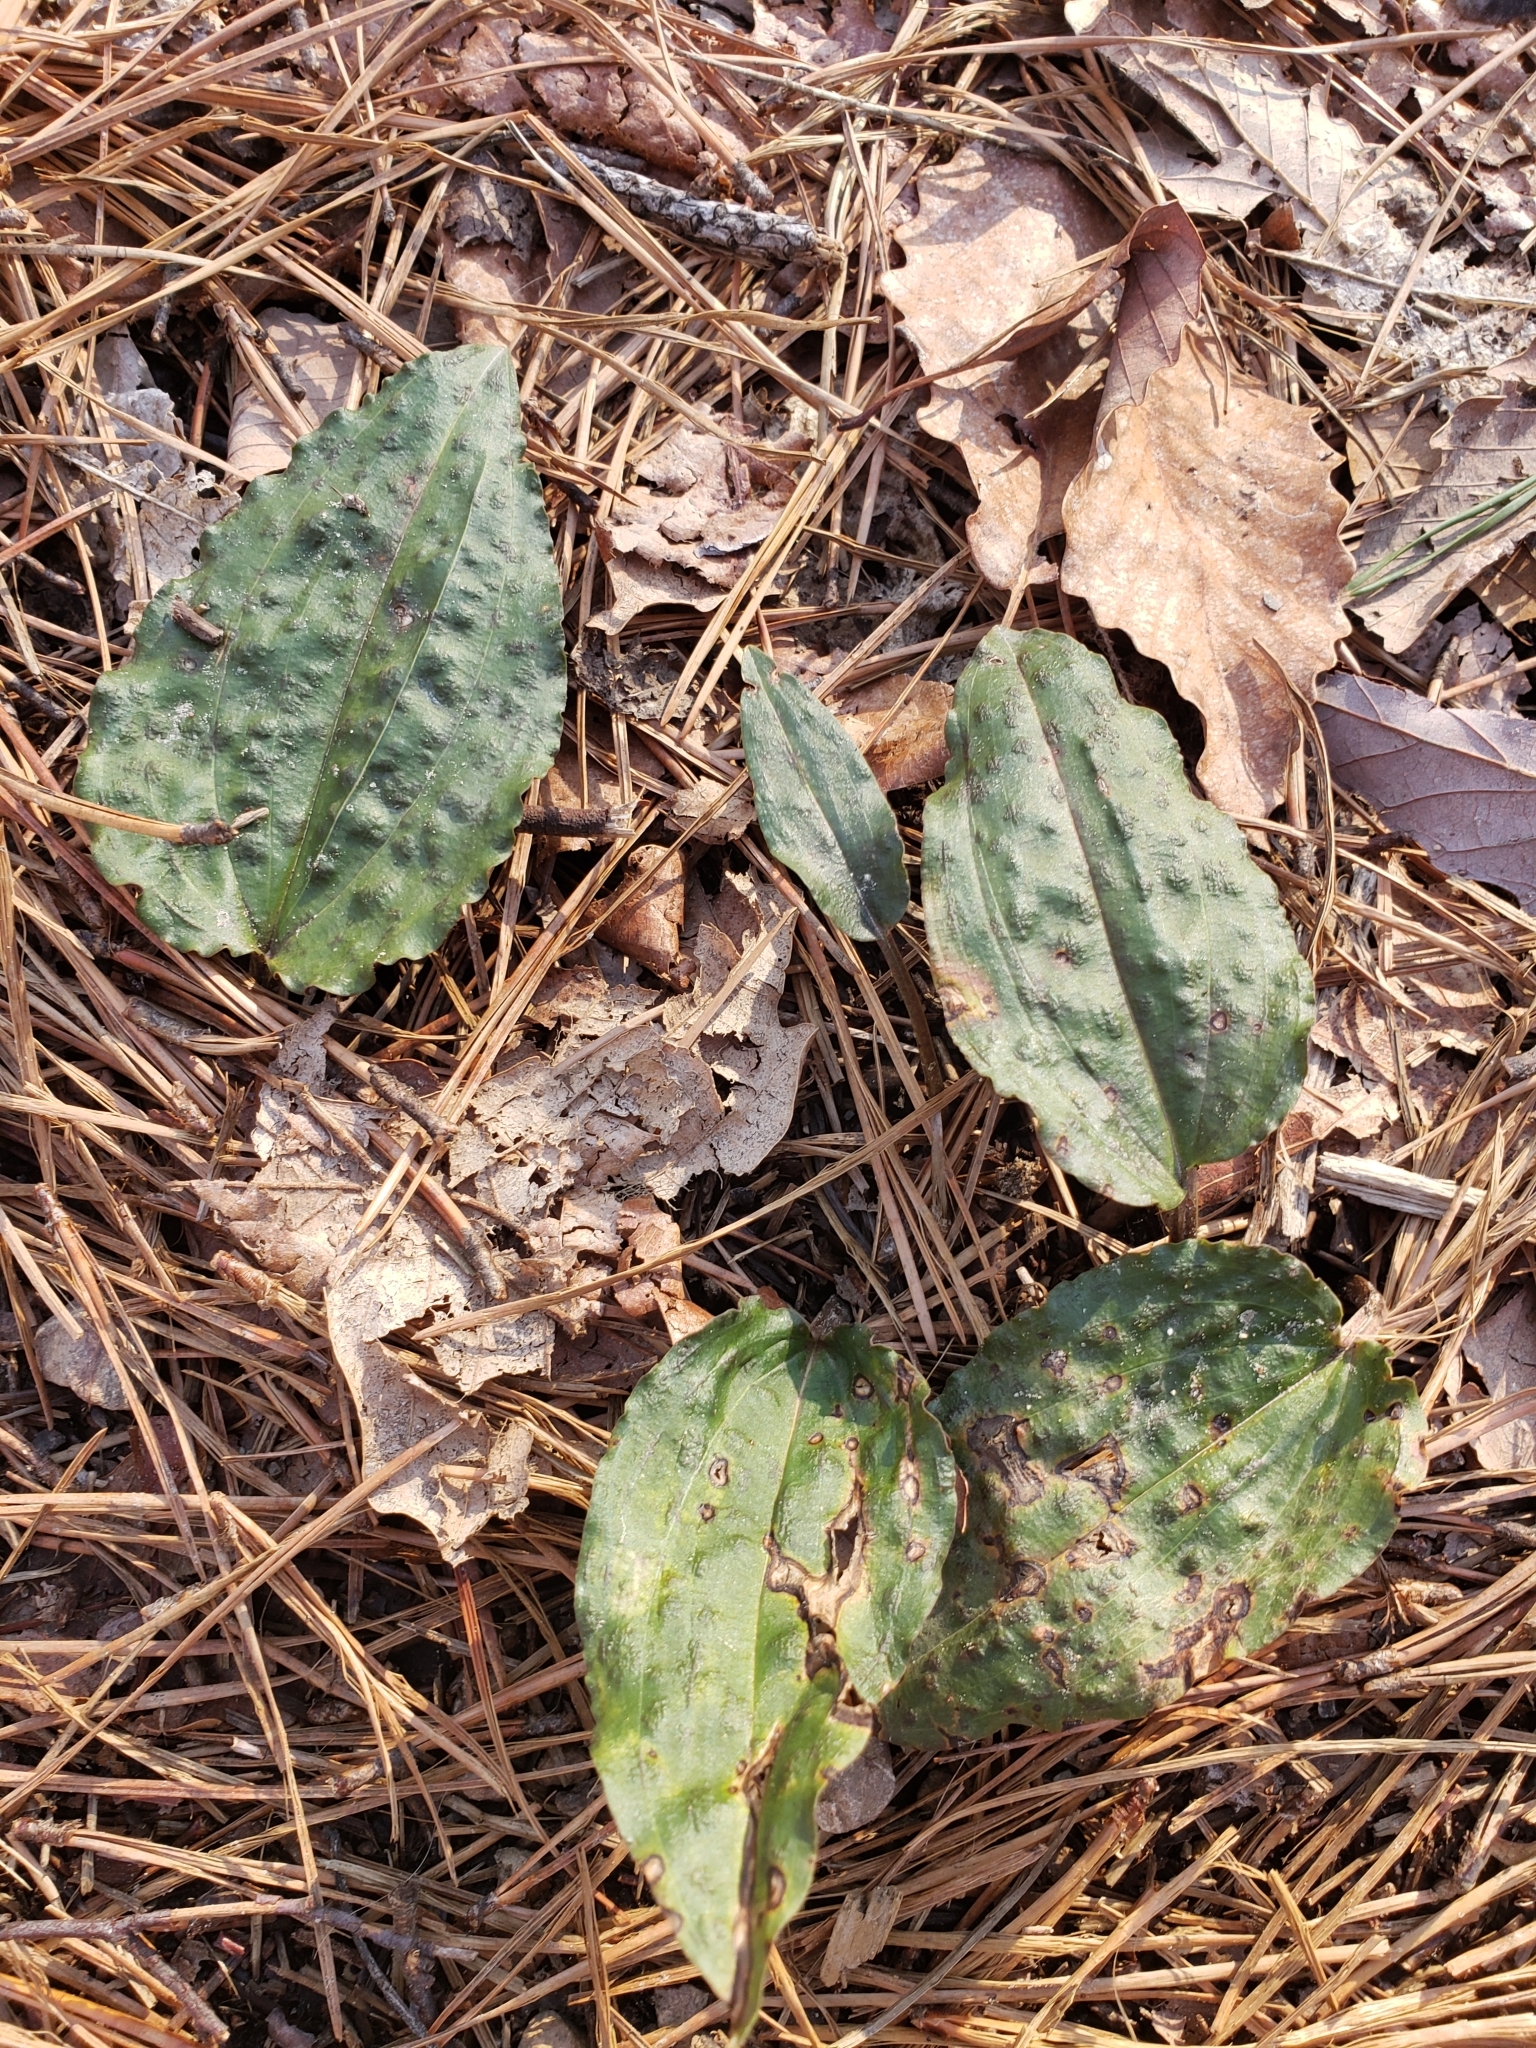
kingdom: Plantae
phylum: Tracheophyta
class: Liliopsida
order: Asparagales
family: Orchidaceae
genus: Tipularia
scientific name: Tipularia discolor
